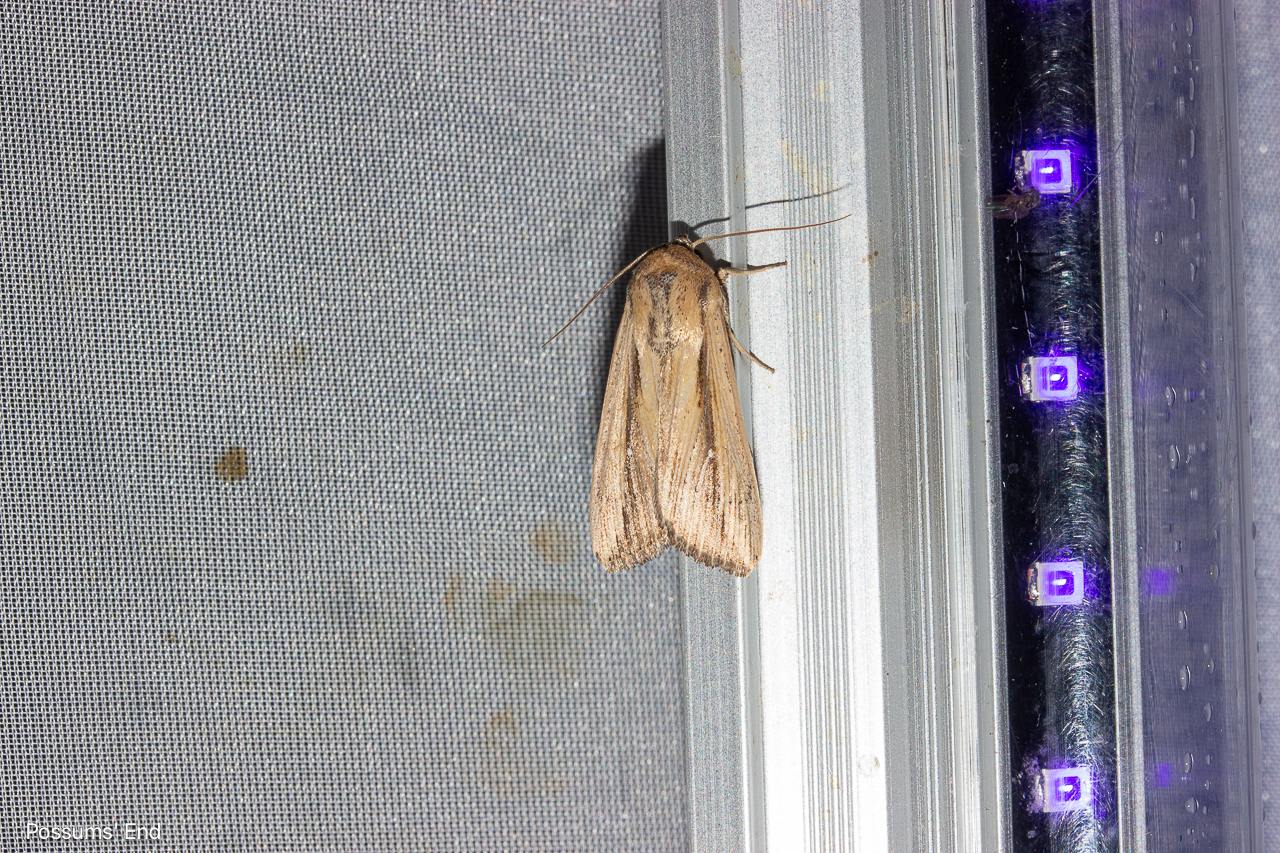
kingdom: Animalia
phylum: Arthropoda
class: Insecta
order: Lepidoptera
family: Noctuidae
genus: Leucania
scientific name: Leucania stenographa
